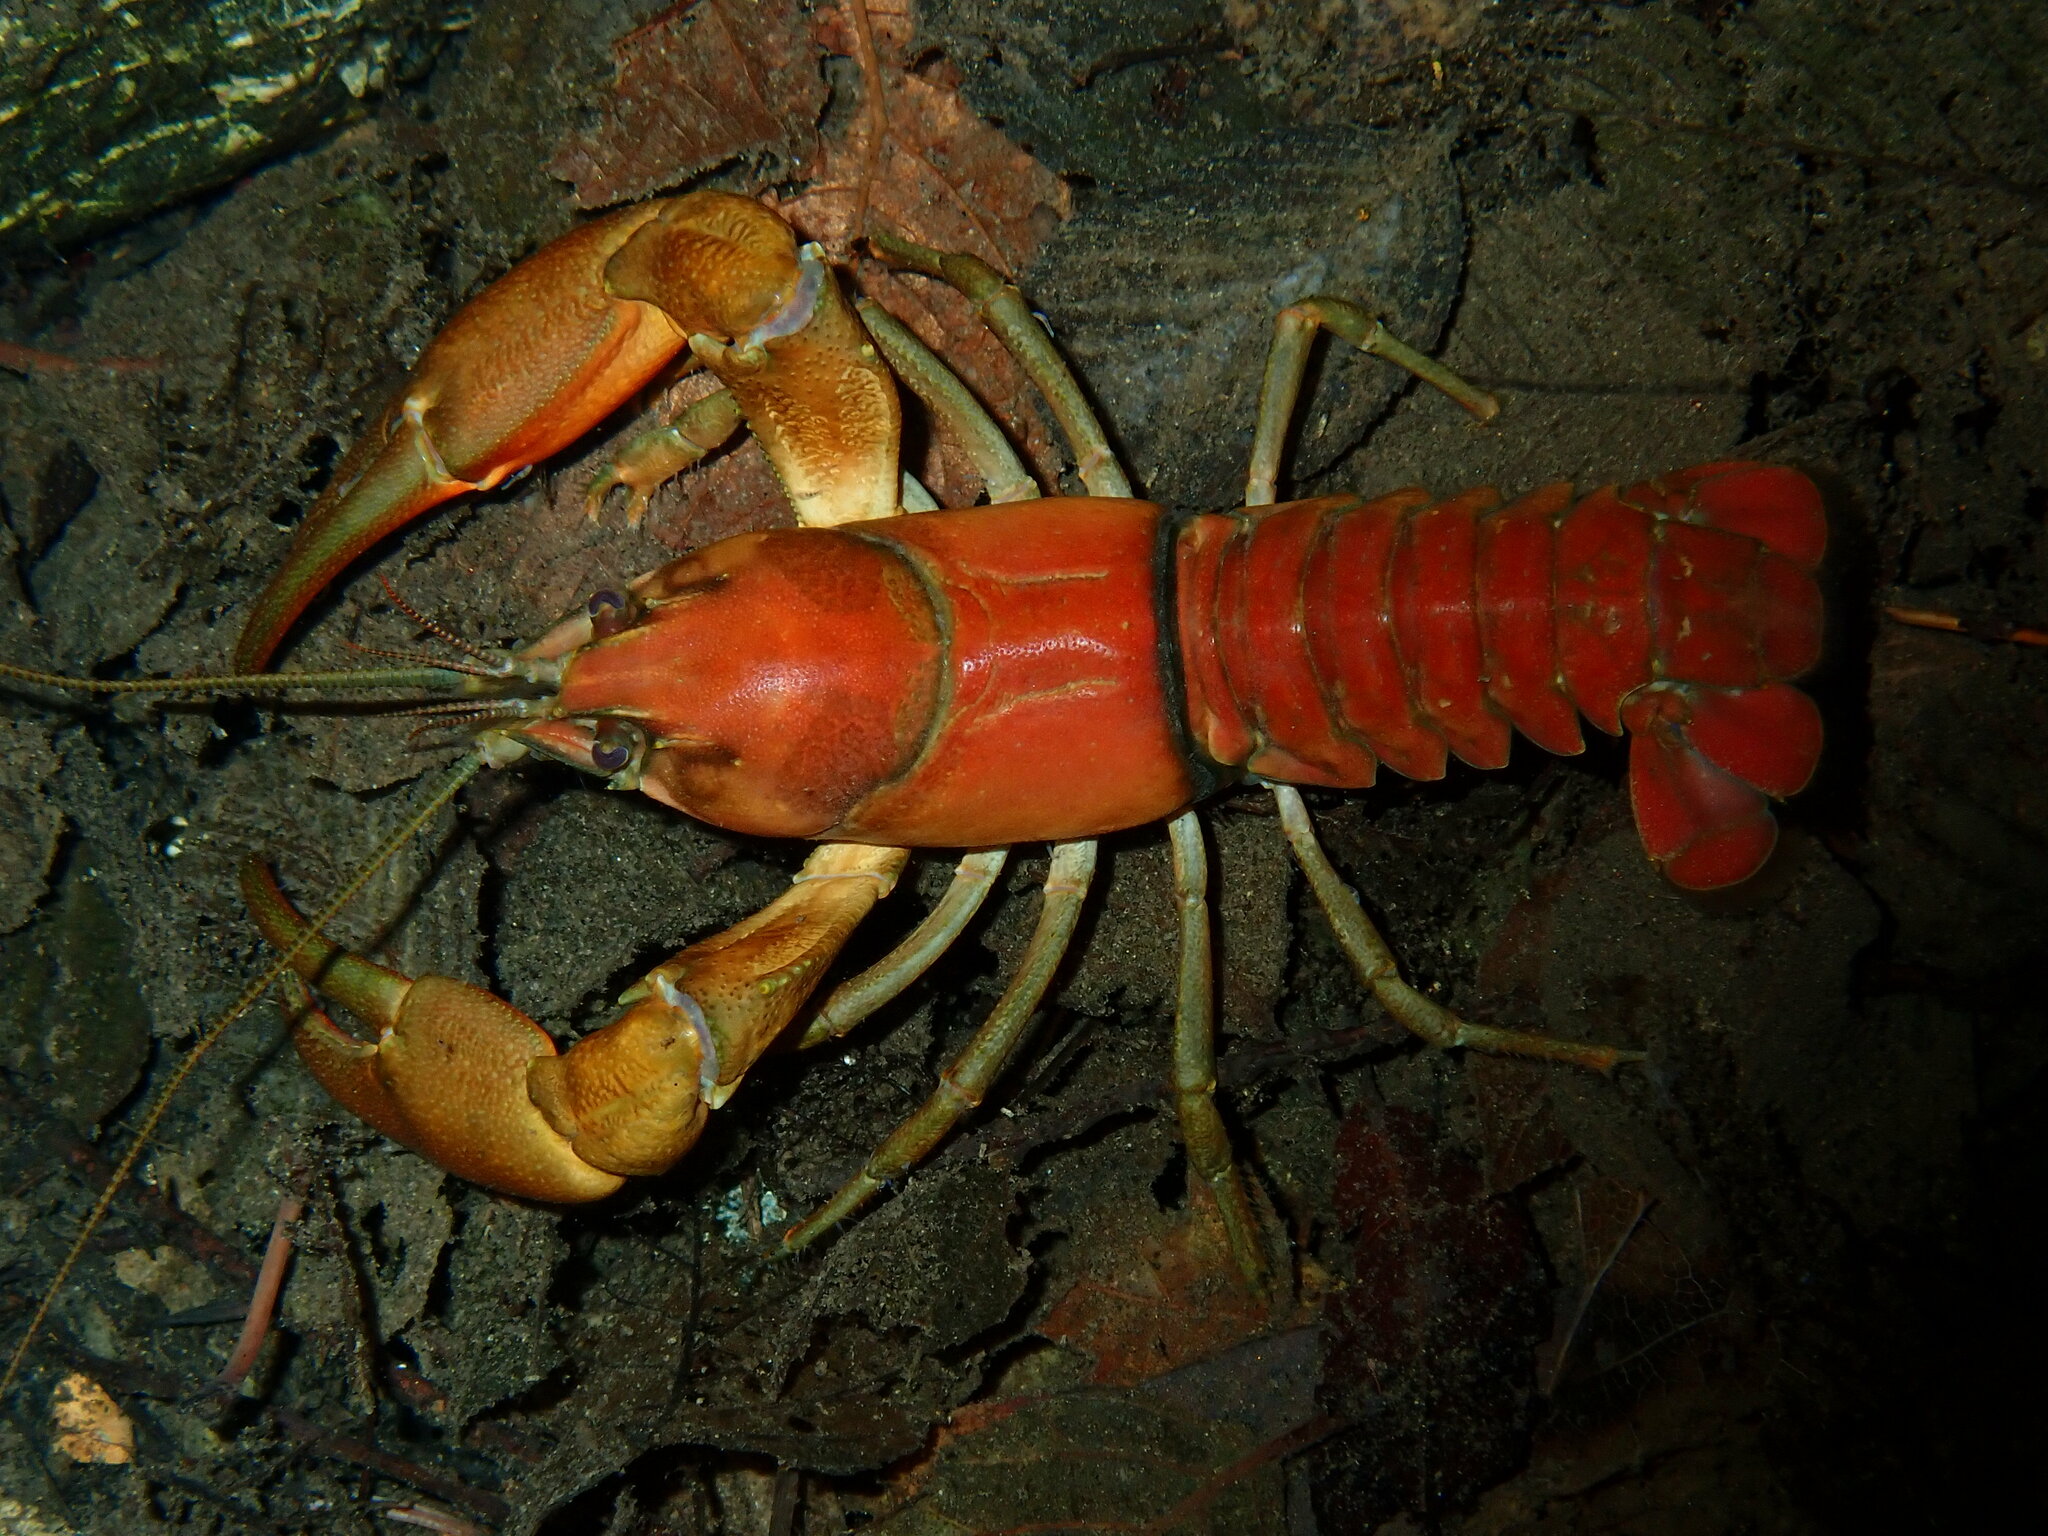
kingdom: Animalia
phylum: Arthropoda
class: Malacostraca
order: Decapoda
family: Astacidae
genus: Pacifastacus
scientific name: Pacifastacus leniusculus
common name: Signal crayfish
